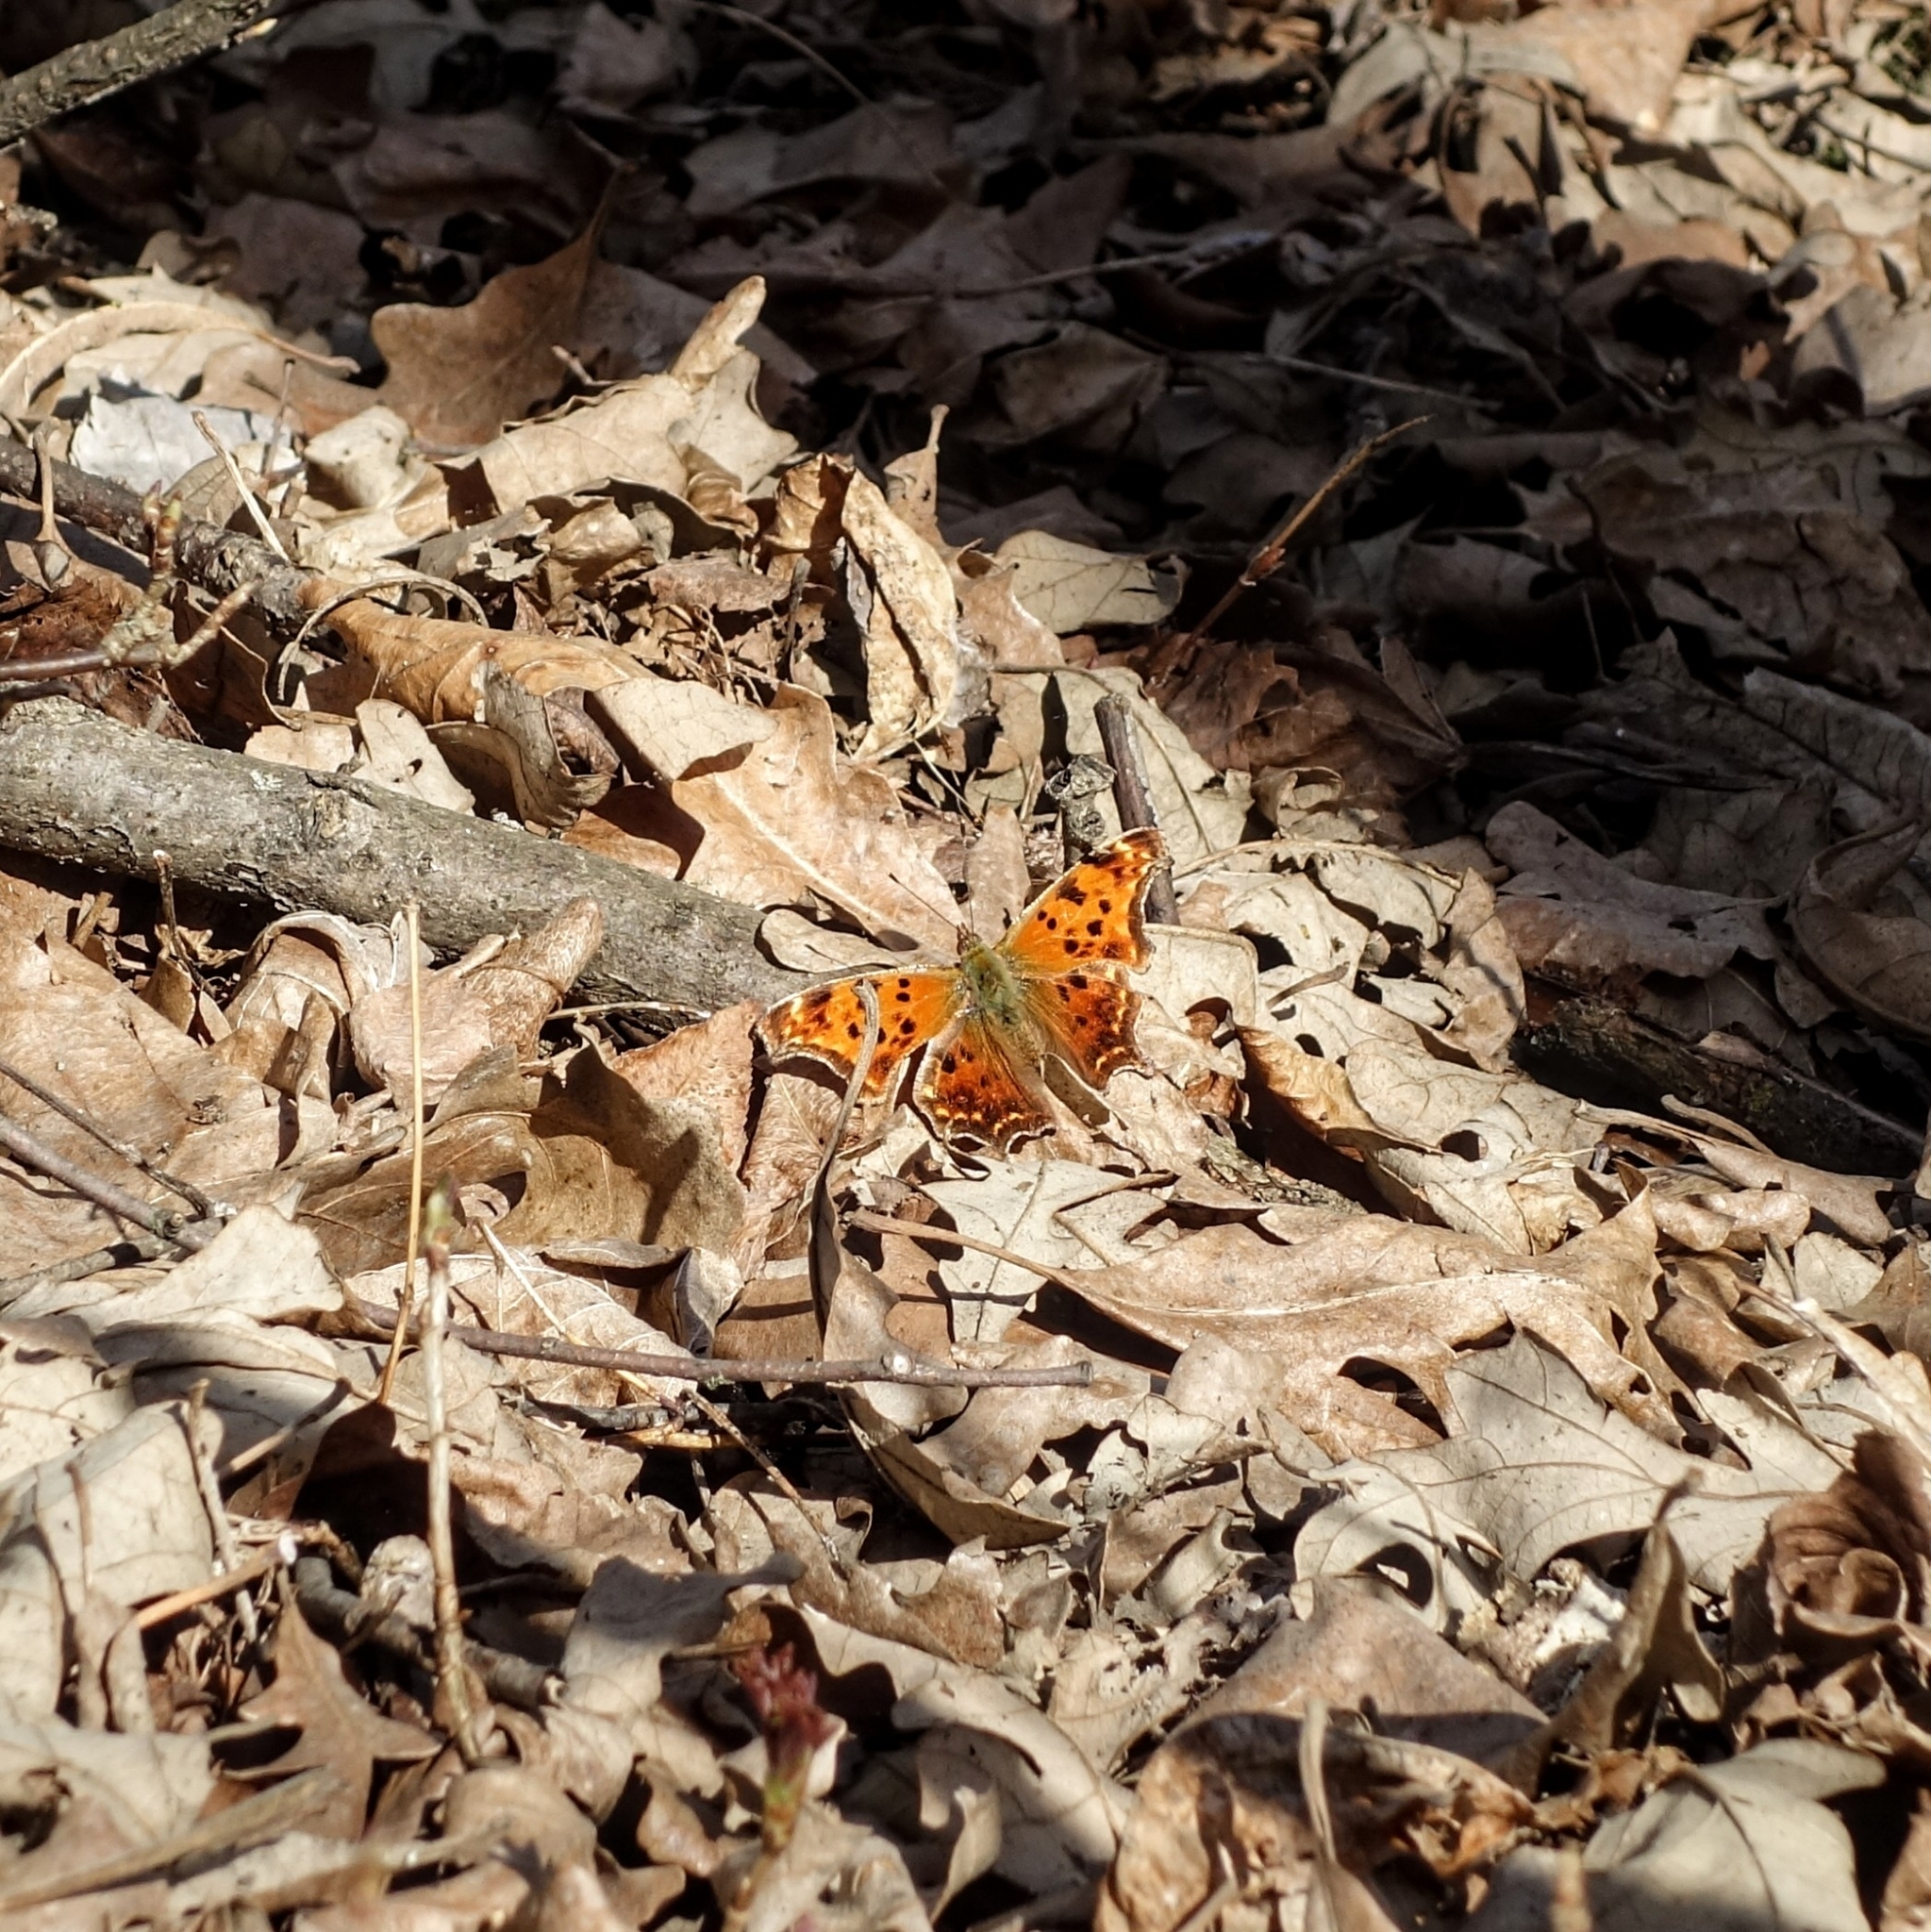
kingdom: Animalia
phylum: Arthropoda
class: Insecta
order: Lepidoptera
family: Nymphalidae
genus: Polygonia
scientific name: Polygonia comma
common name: Eastern comma
